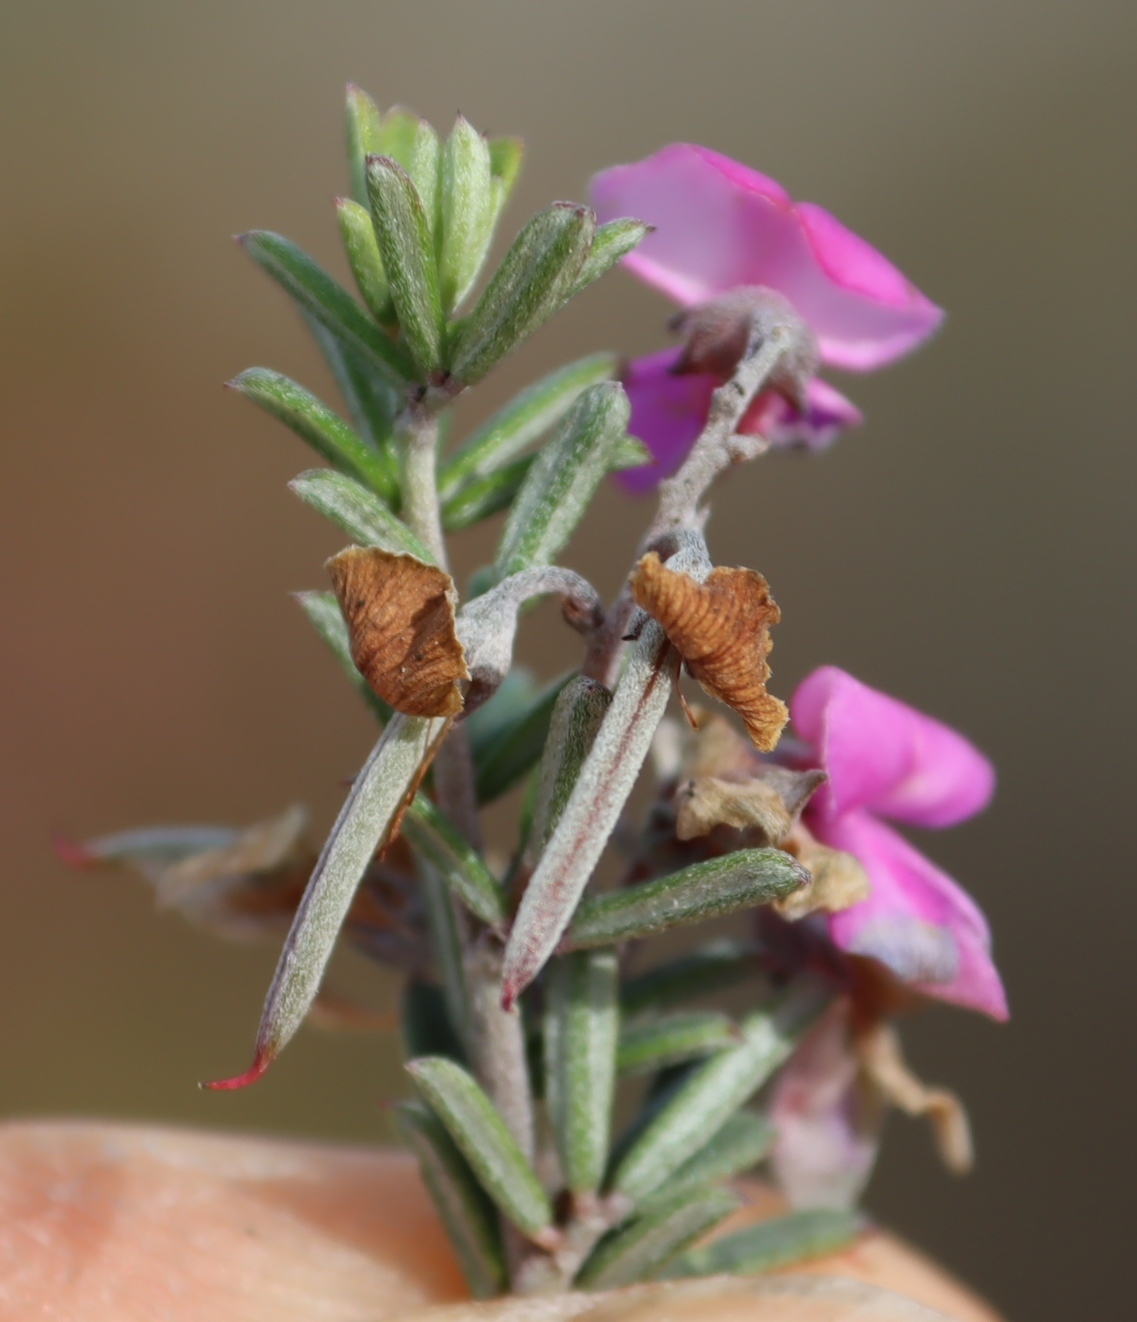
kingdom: Plantae
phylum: Tracheophyta
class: Magnoliopsida
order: Fabales
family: Fabaceae
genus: Indigofera
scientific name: Indigofera
